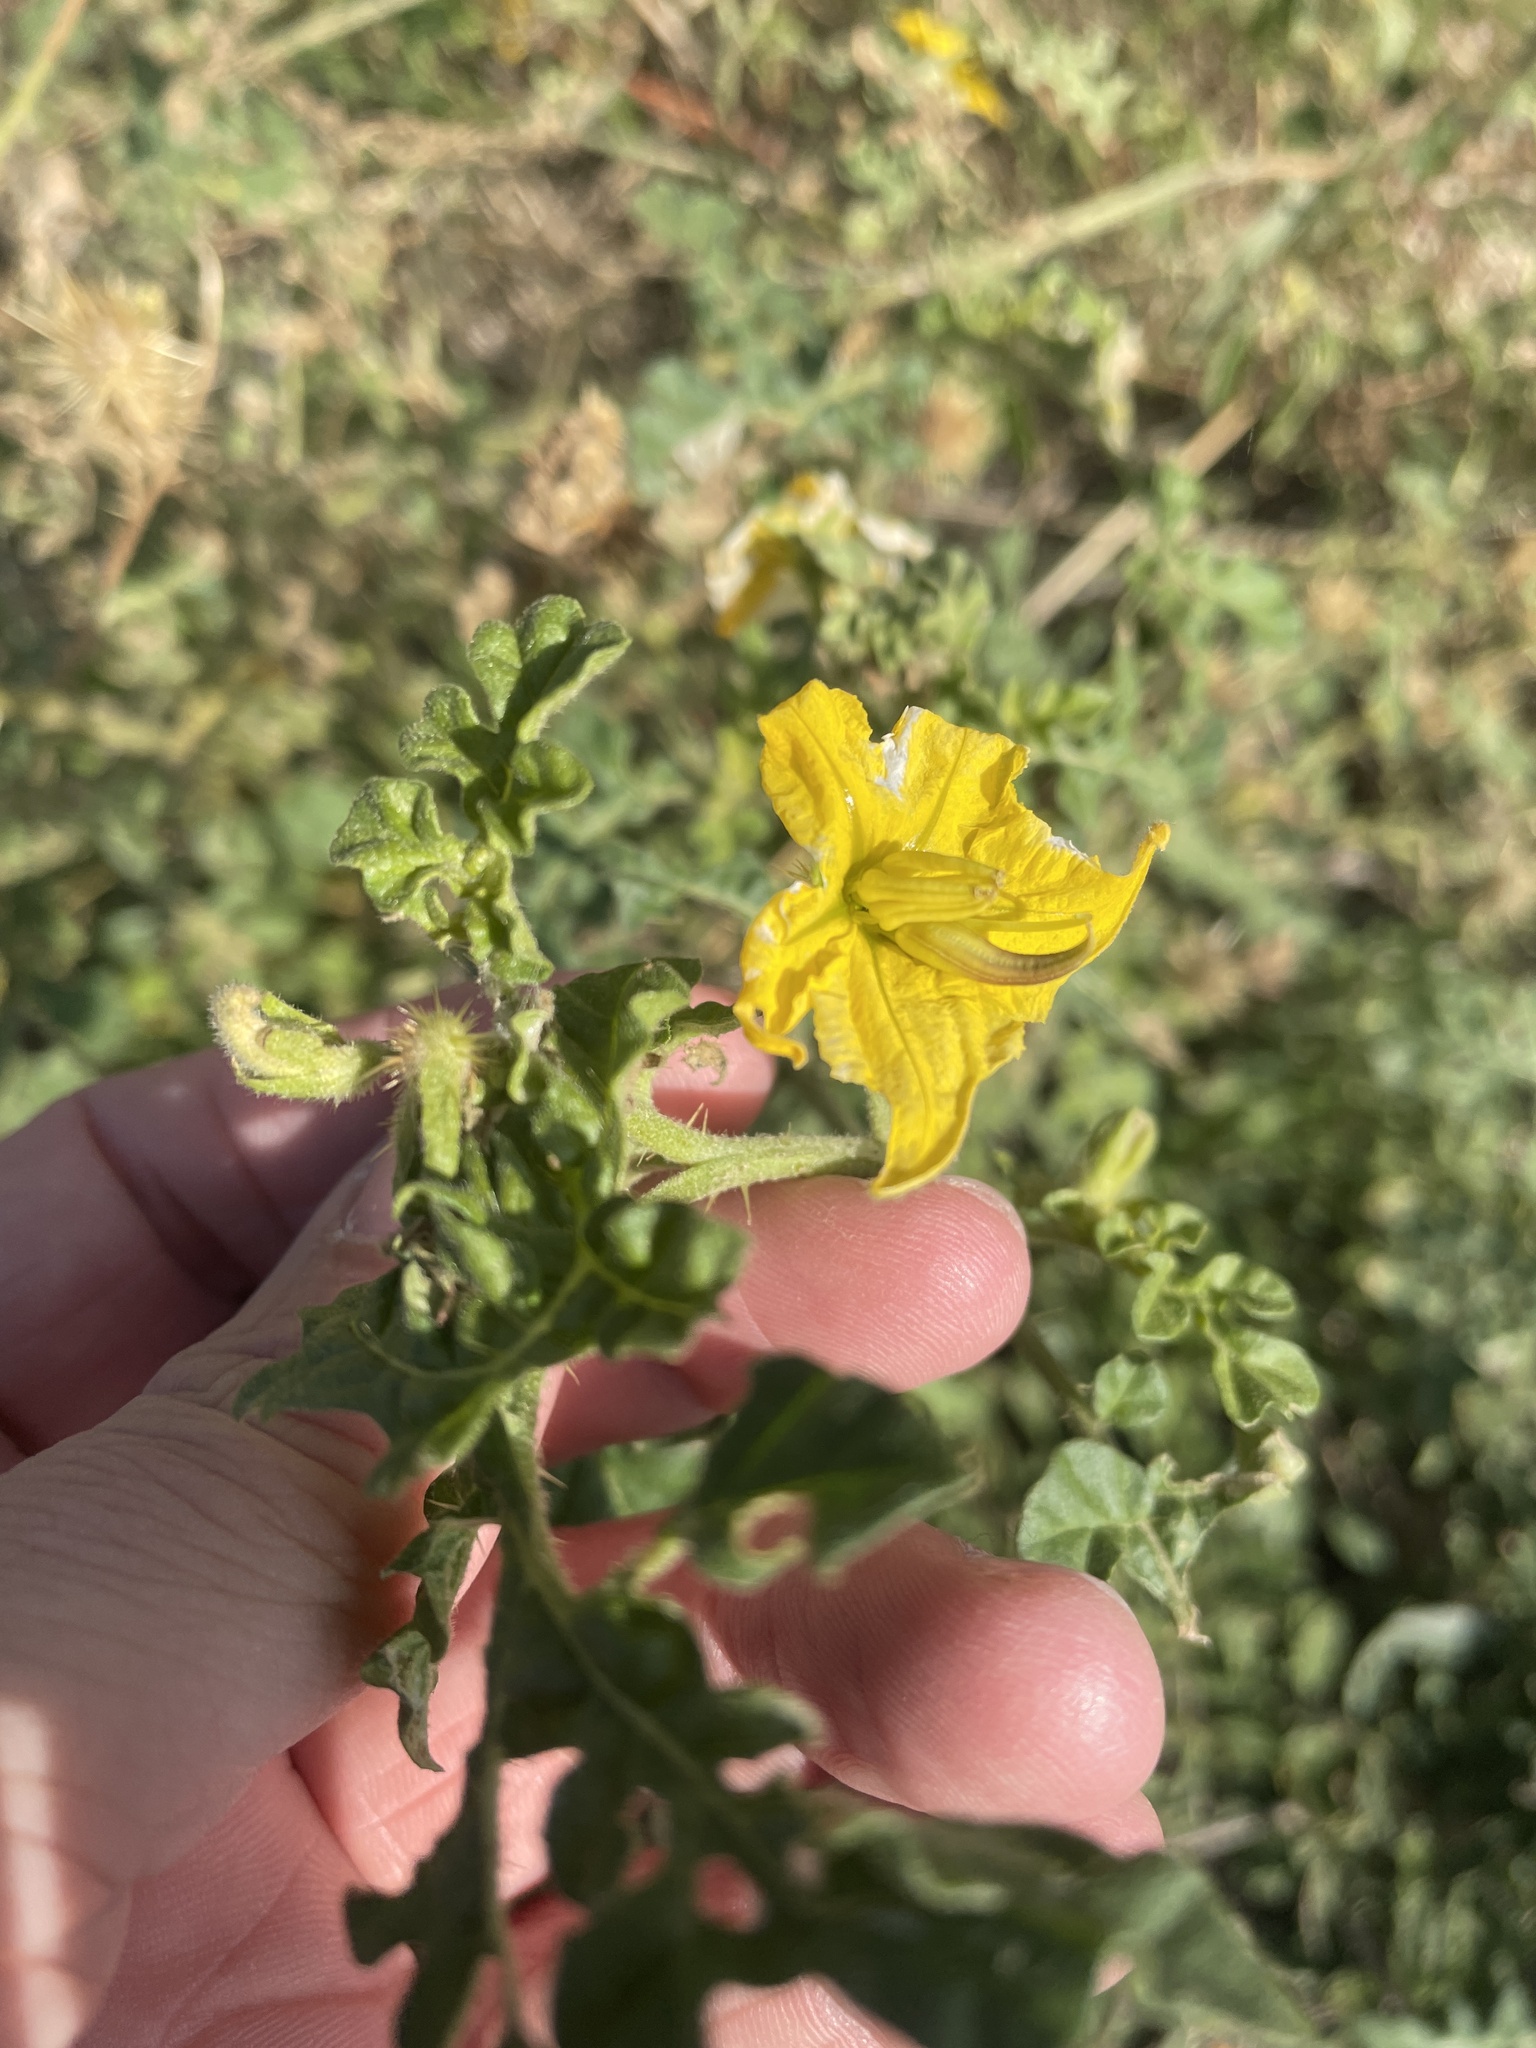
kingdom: Plantae
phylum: Tracheophyta
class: Magnoliopsida
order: Solanales
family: Solanaceae
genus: Solanum
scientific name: Solanum angustifolium
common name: Buffalobur nightshade
